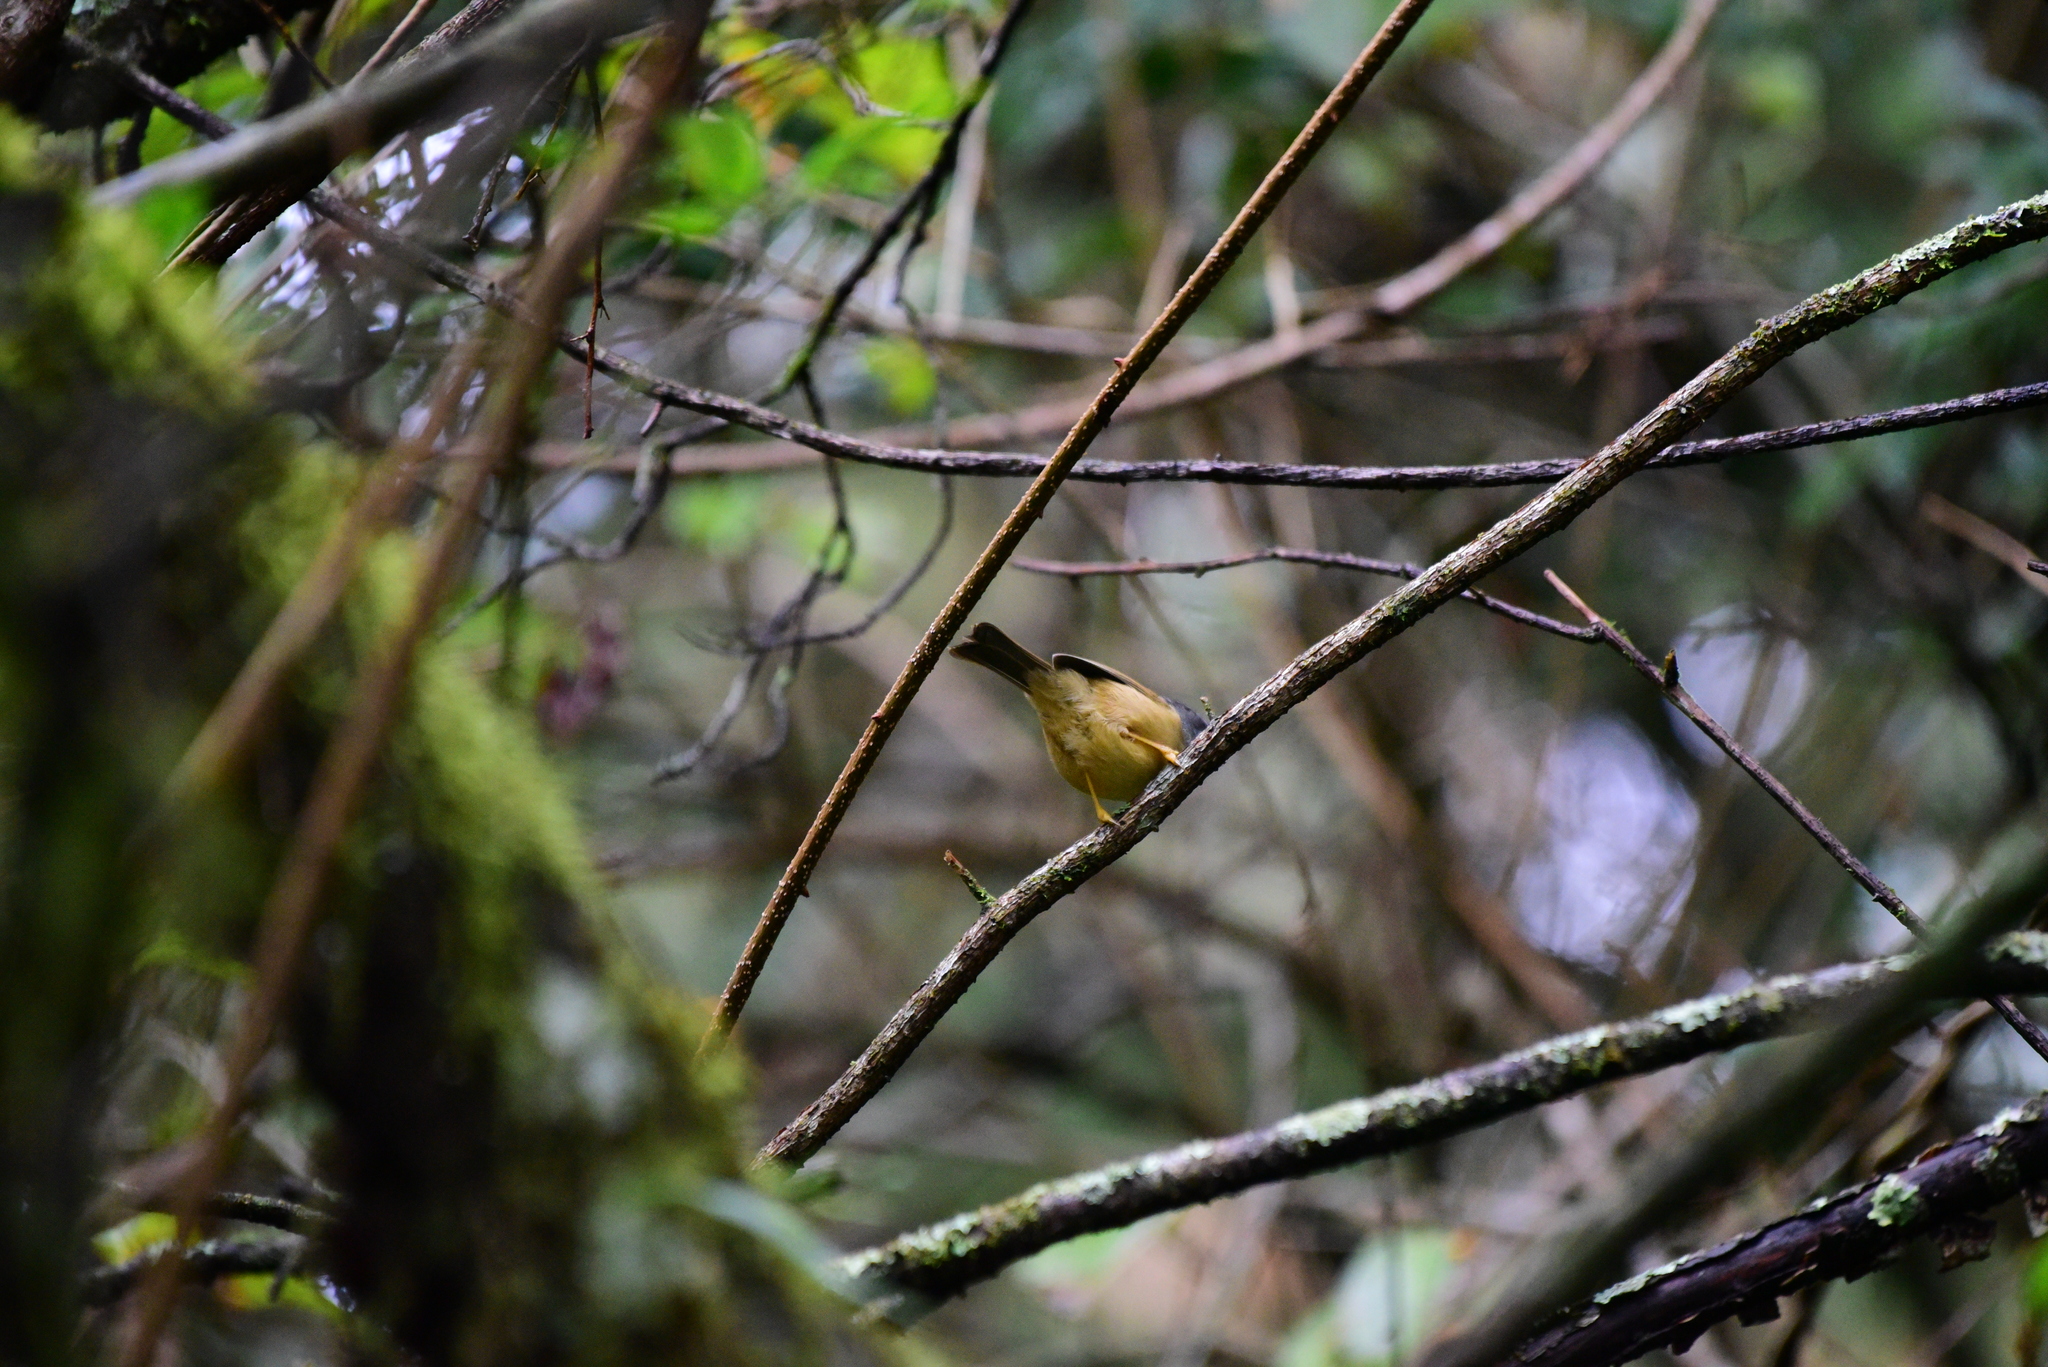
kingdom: Animalia
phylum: Chordata
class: Aves
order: Passeriformes
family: Pellorneidae
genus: Alcippe
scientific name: Alcippe morrisonia
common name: Grey-cheeked fulvetta
